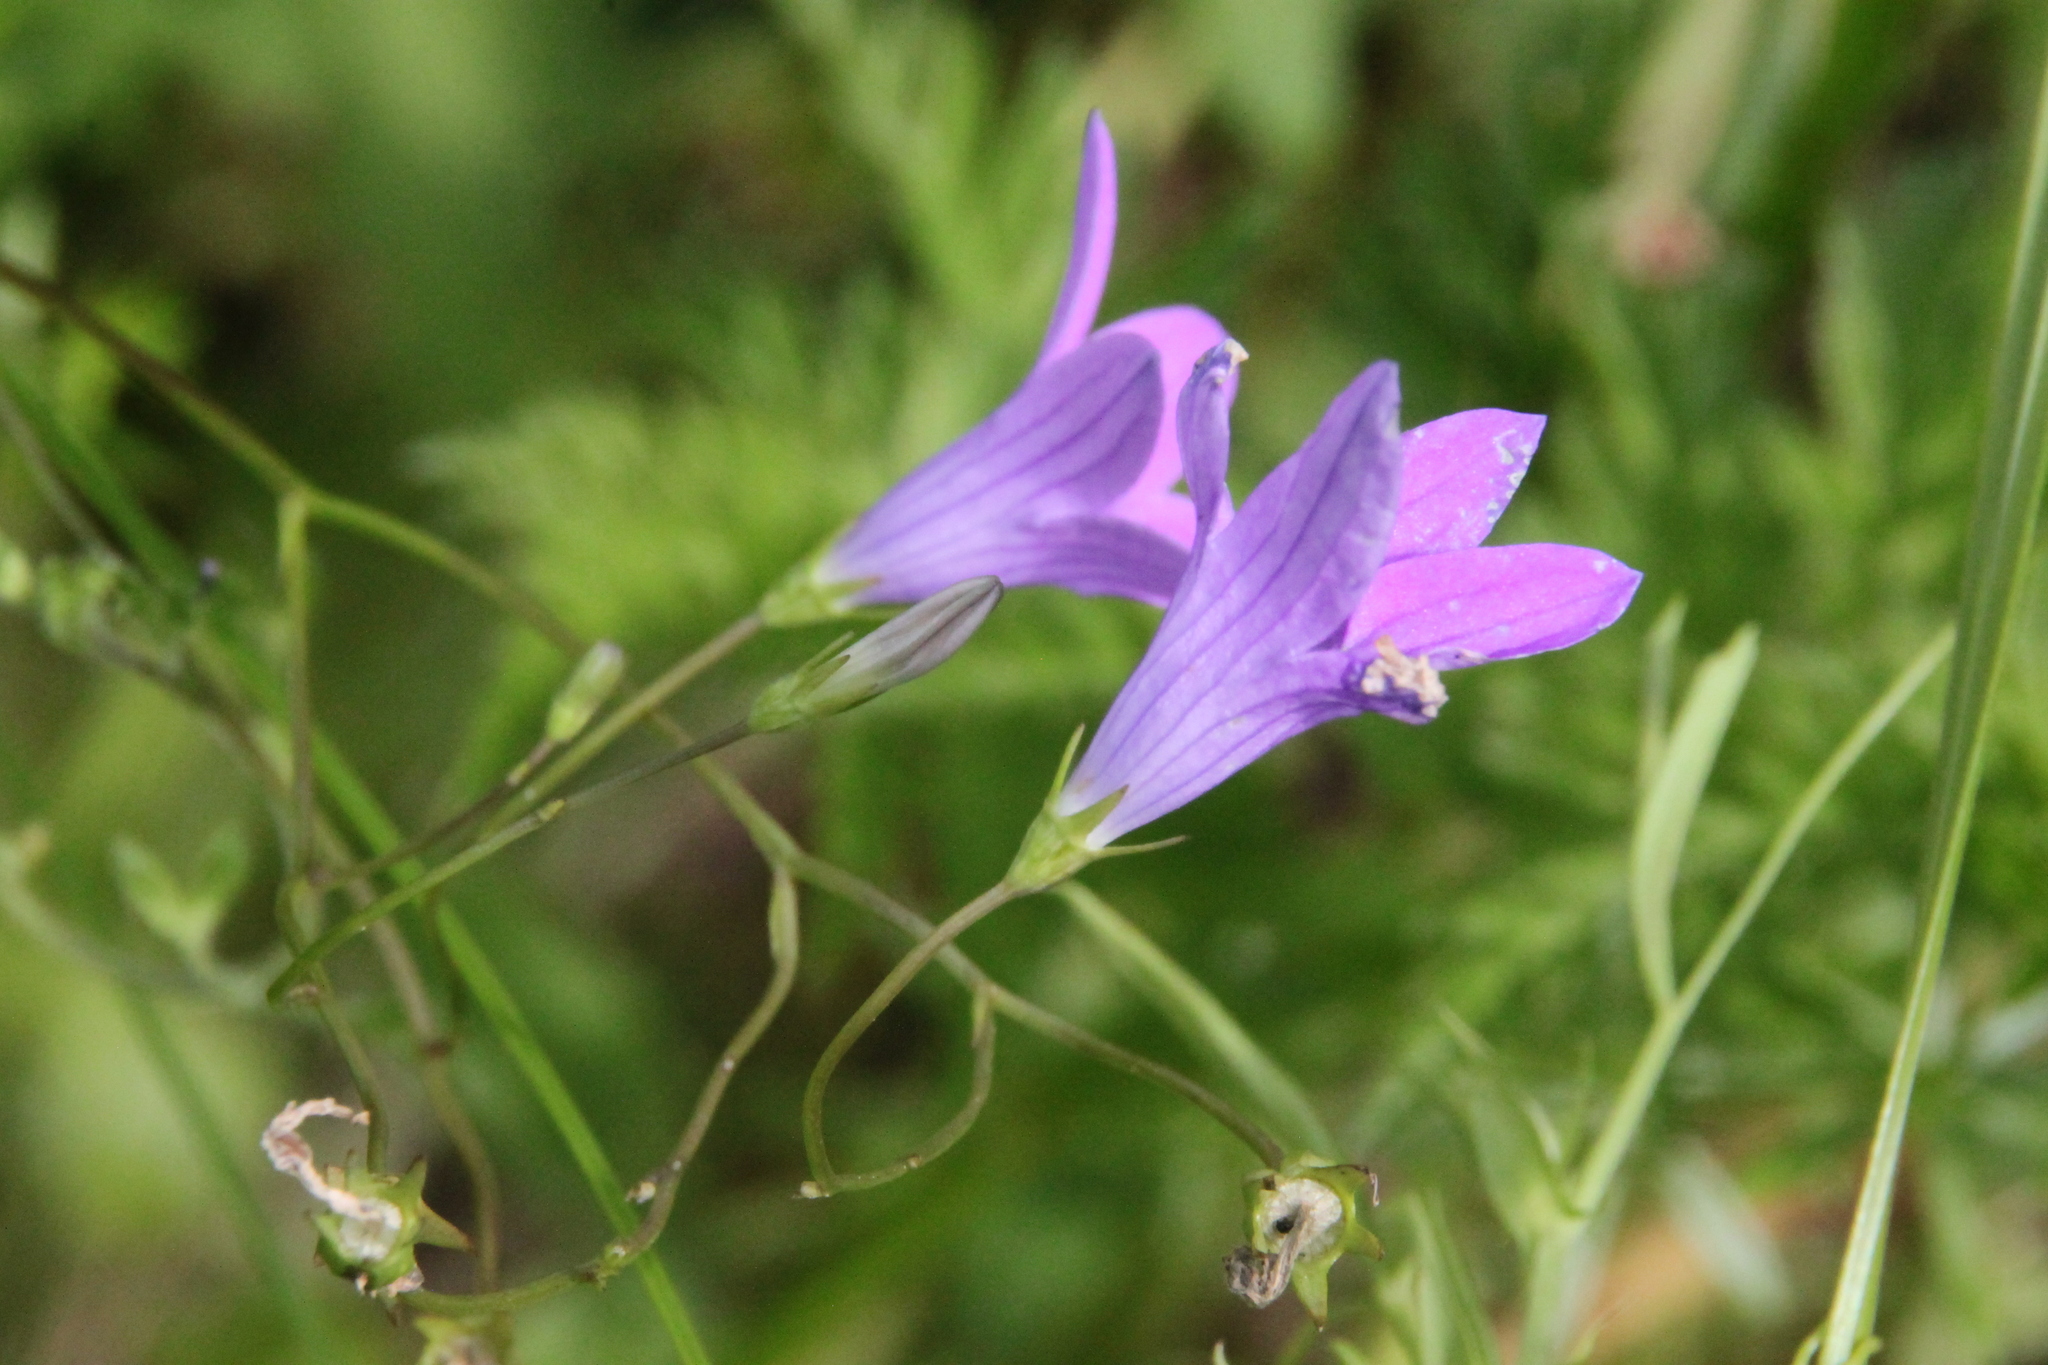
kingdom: Plantae
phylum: Tracheophyta
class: Magnoliopsida
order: Asterales
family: Campanulaceae
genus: Campanula
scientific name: Campanula patula
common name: Spreading bellflower
